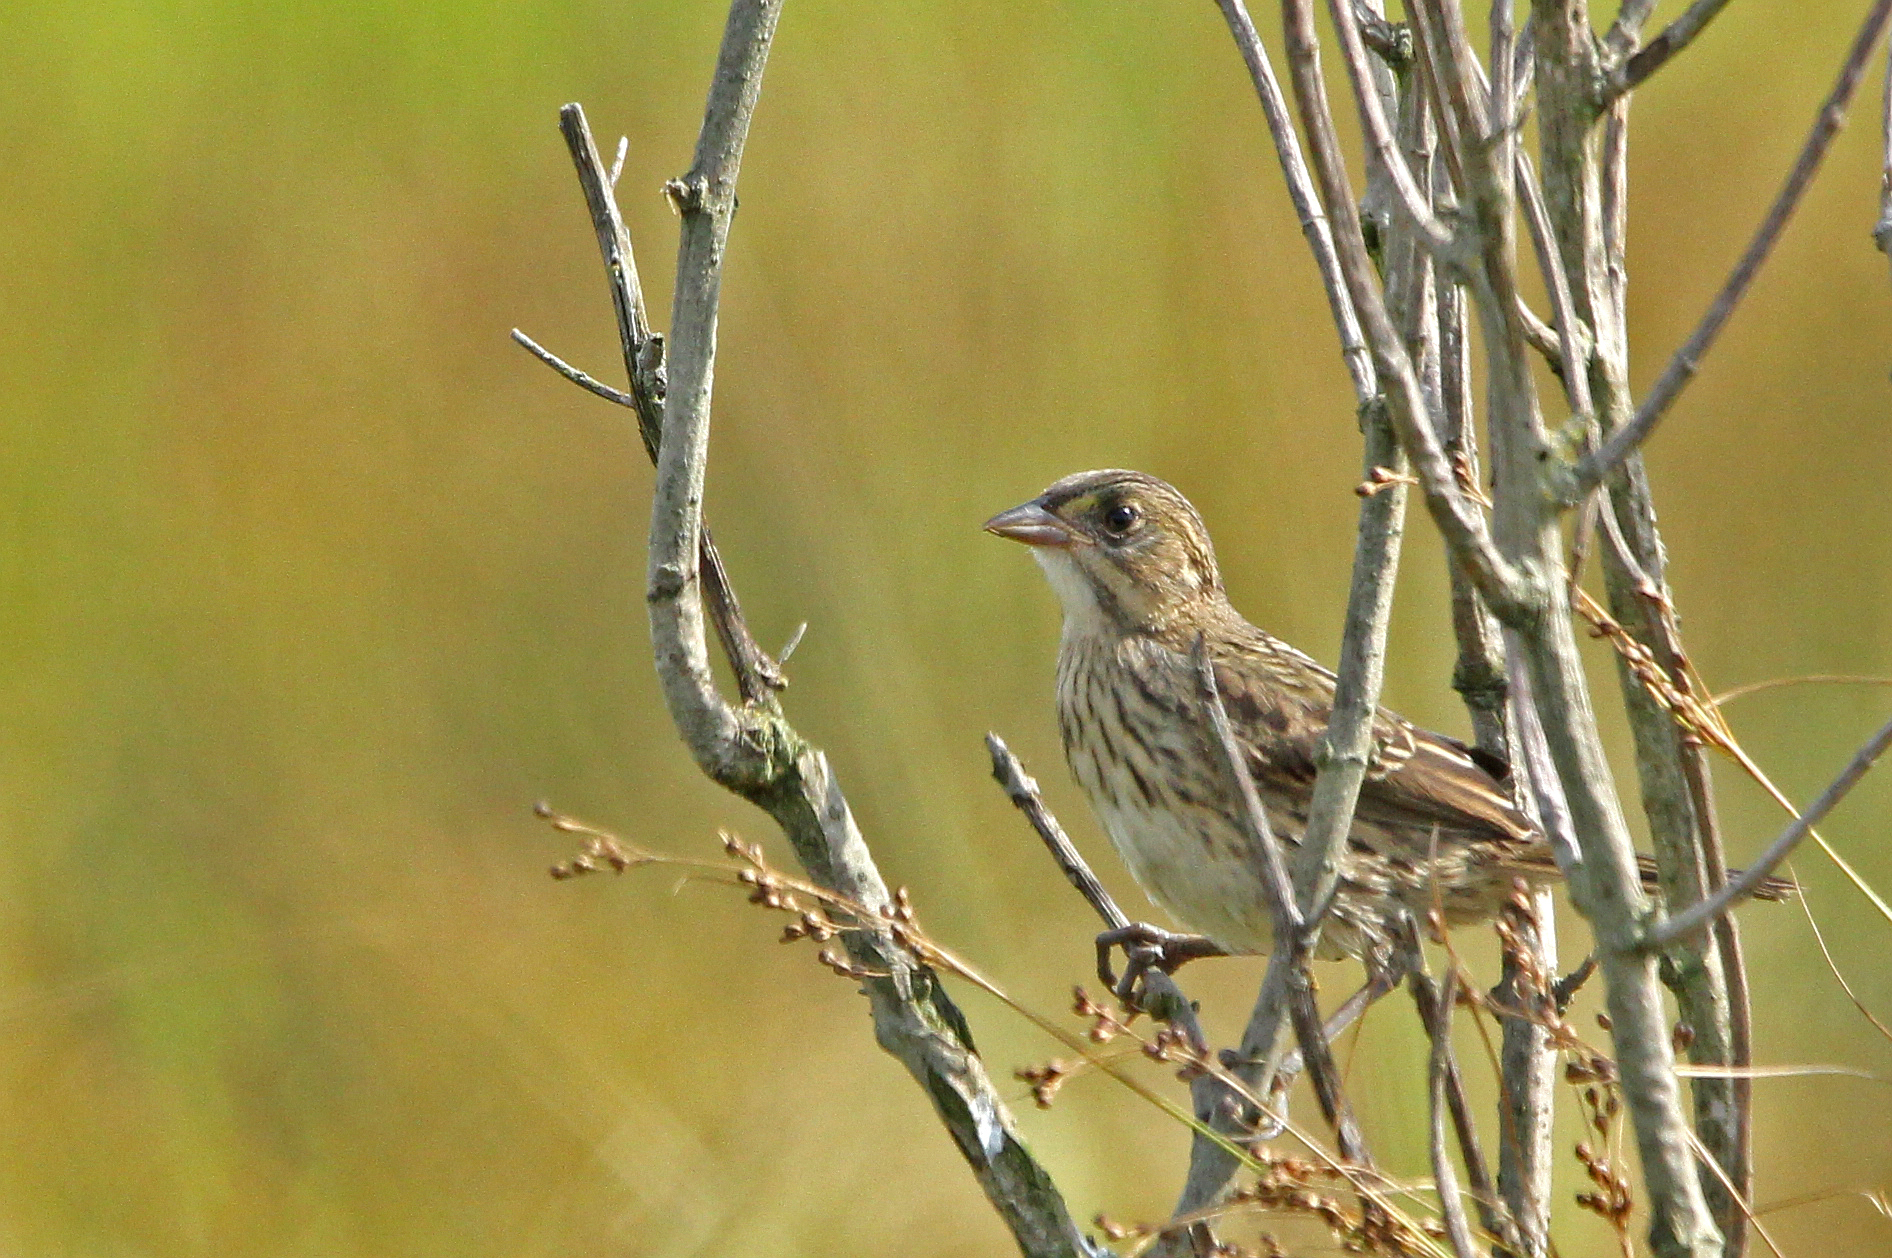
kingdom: Animalia
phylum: Chordata
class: Aves
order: Passeriformes
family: Passerellidae
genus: Ammospiza
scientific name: Ammospiza maritima
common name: Seaside sparrow
